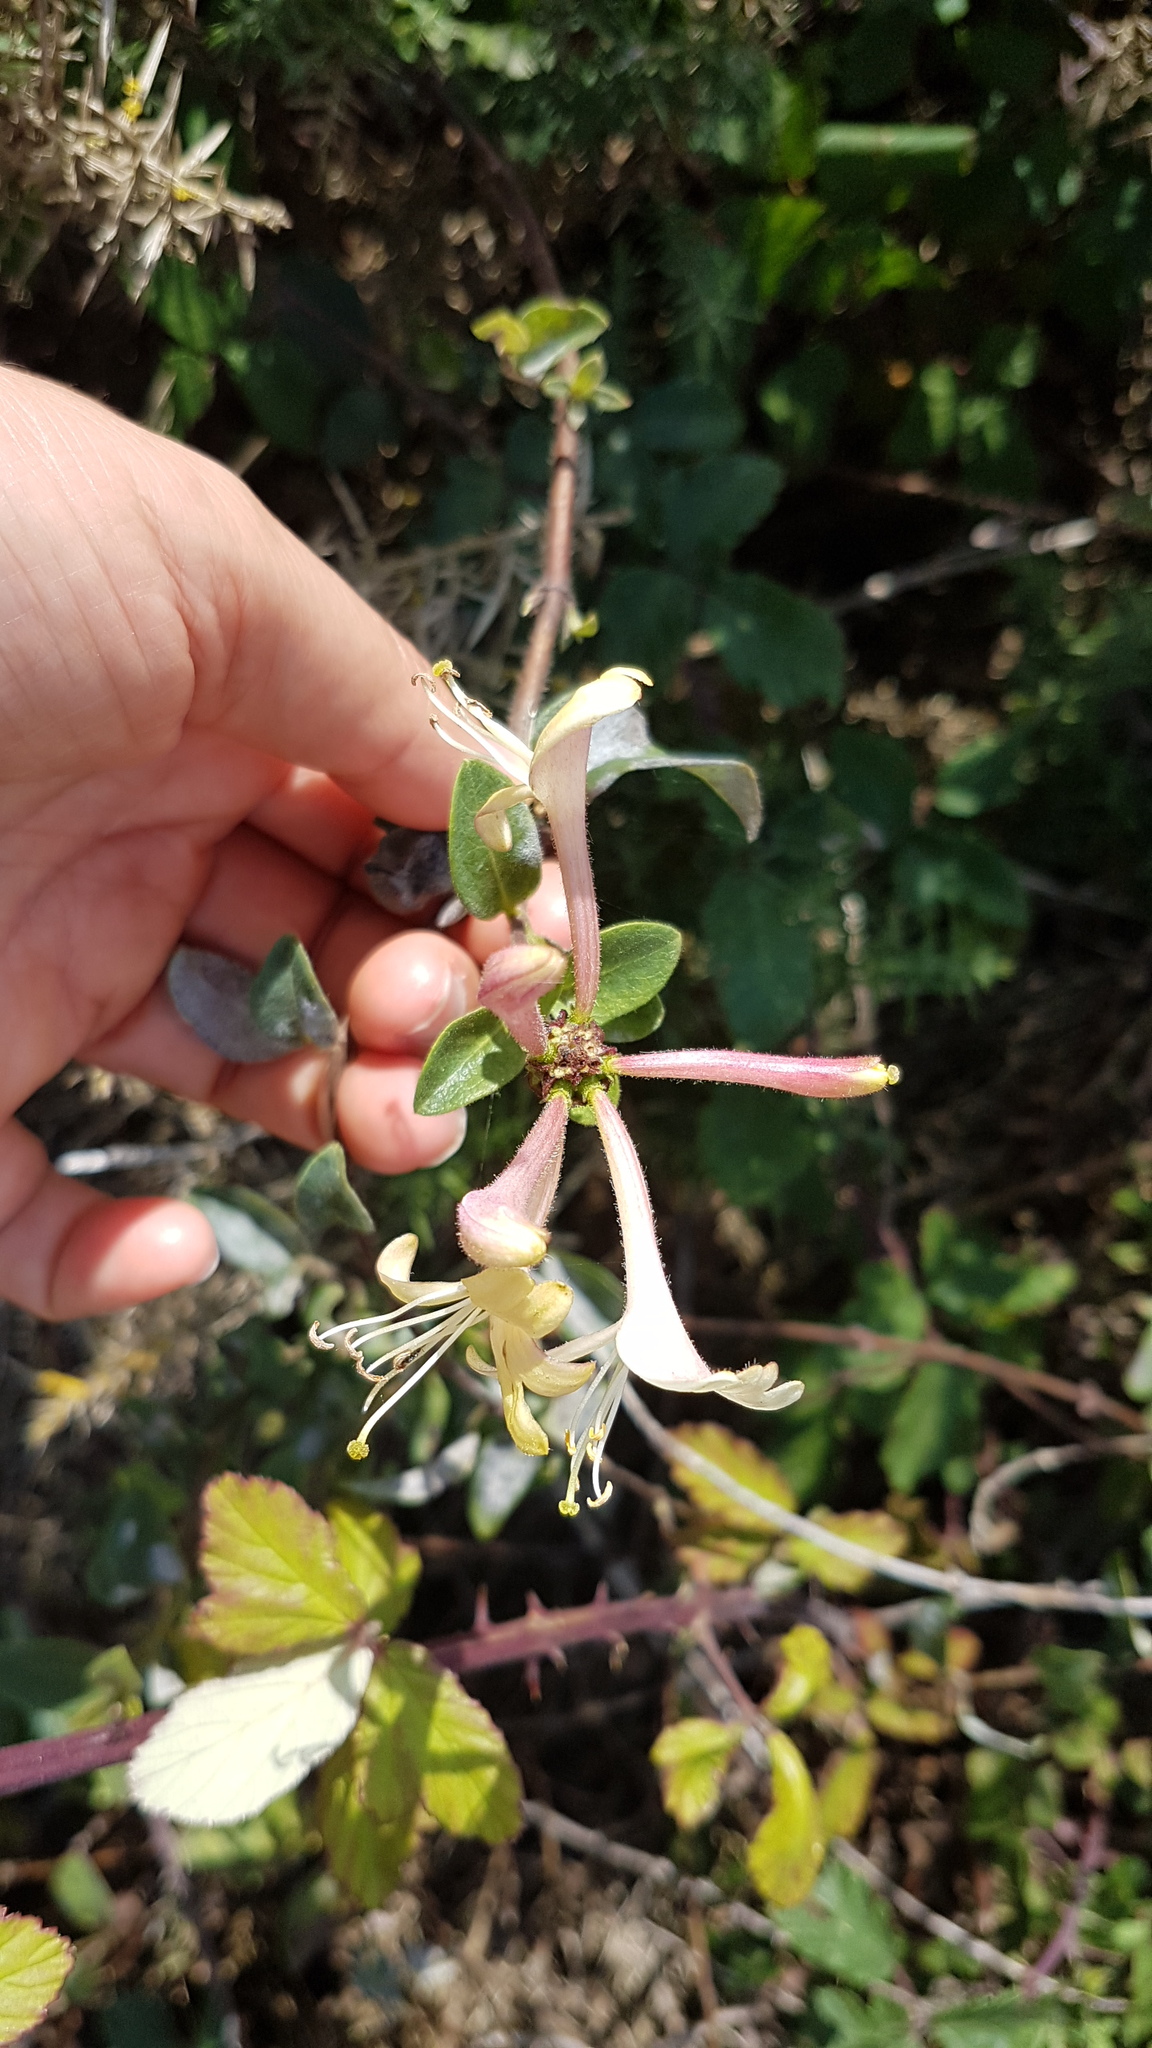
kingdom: Plantae
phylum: Tracheophyta
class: Magnoliopsida
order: Dipsacales
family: Caprifoliaceae
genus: Lonicera
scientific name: Lonicera periclymenum
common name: European honeysuckle
